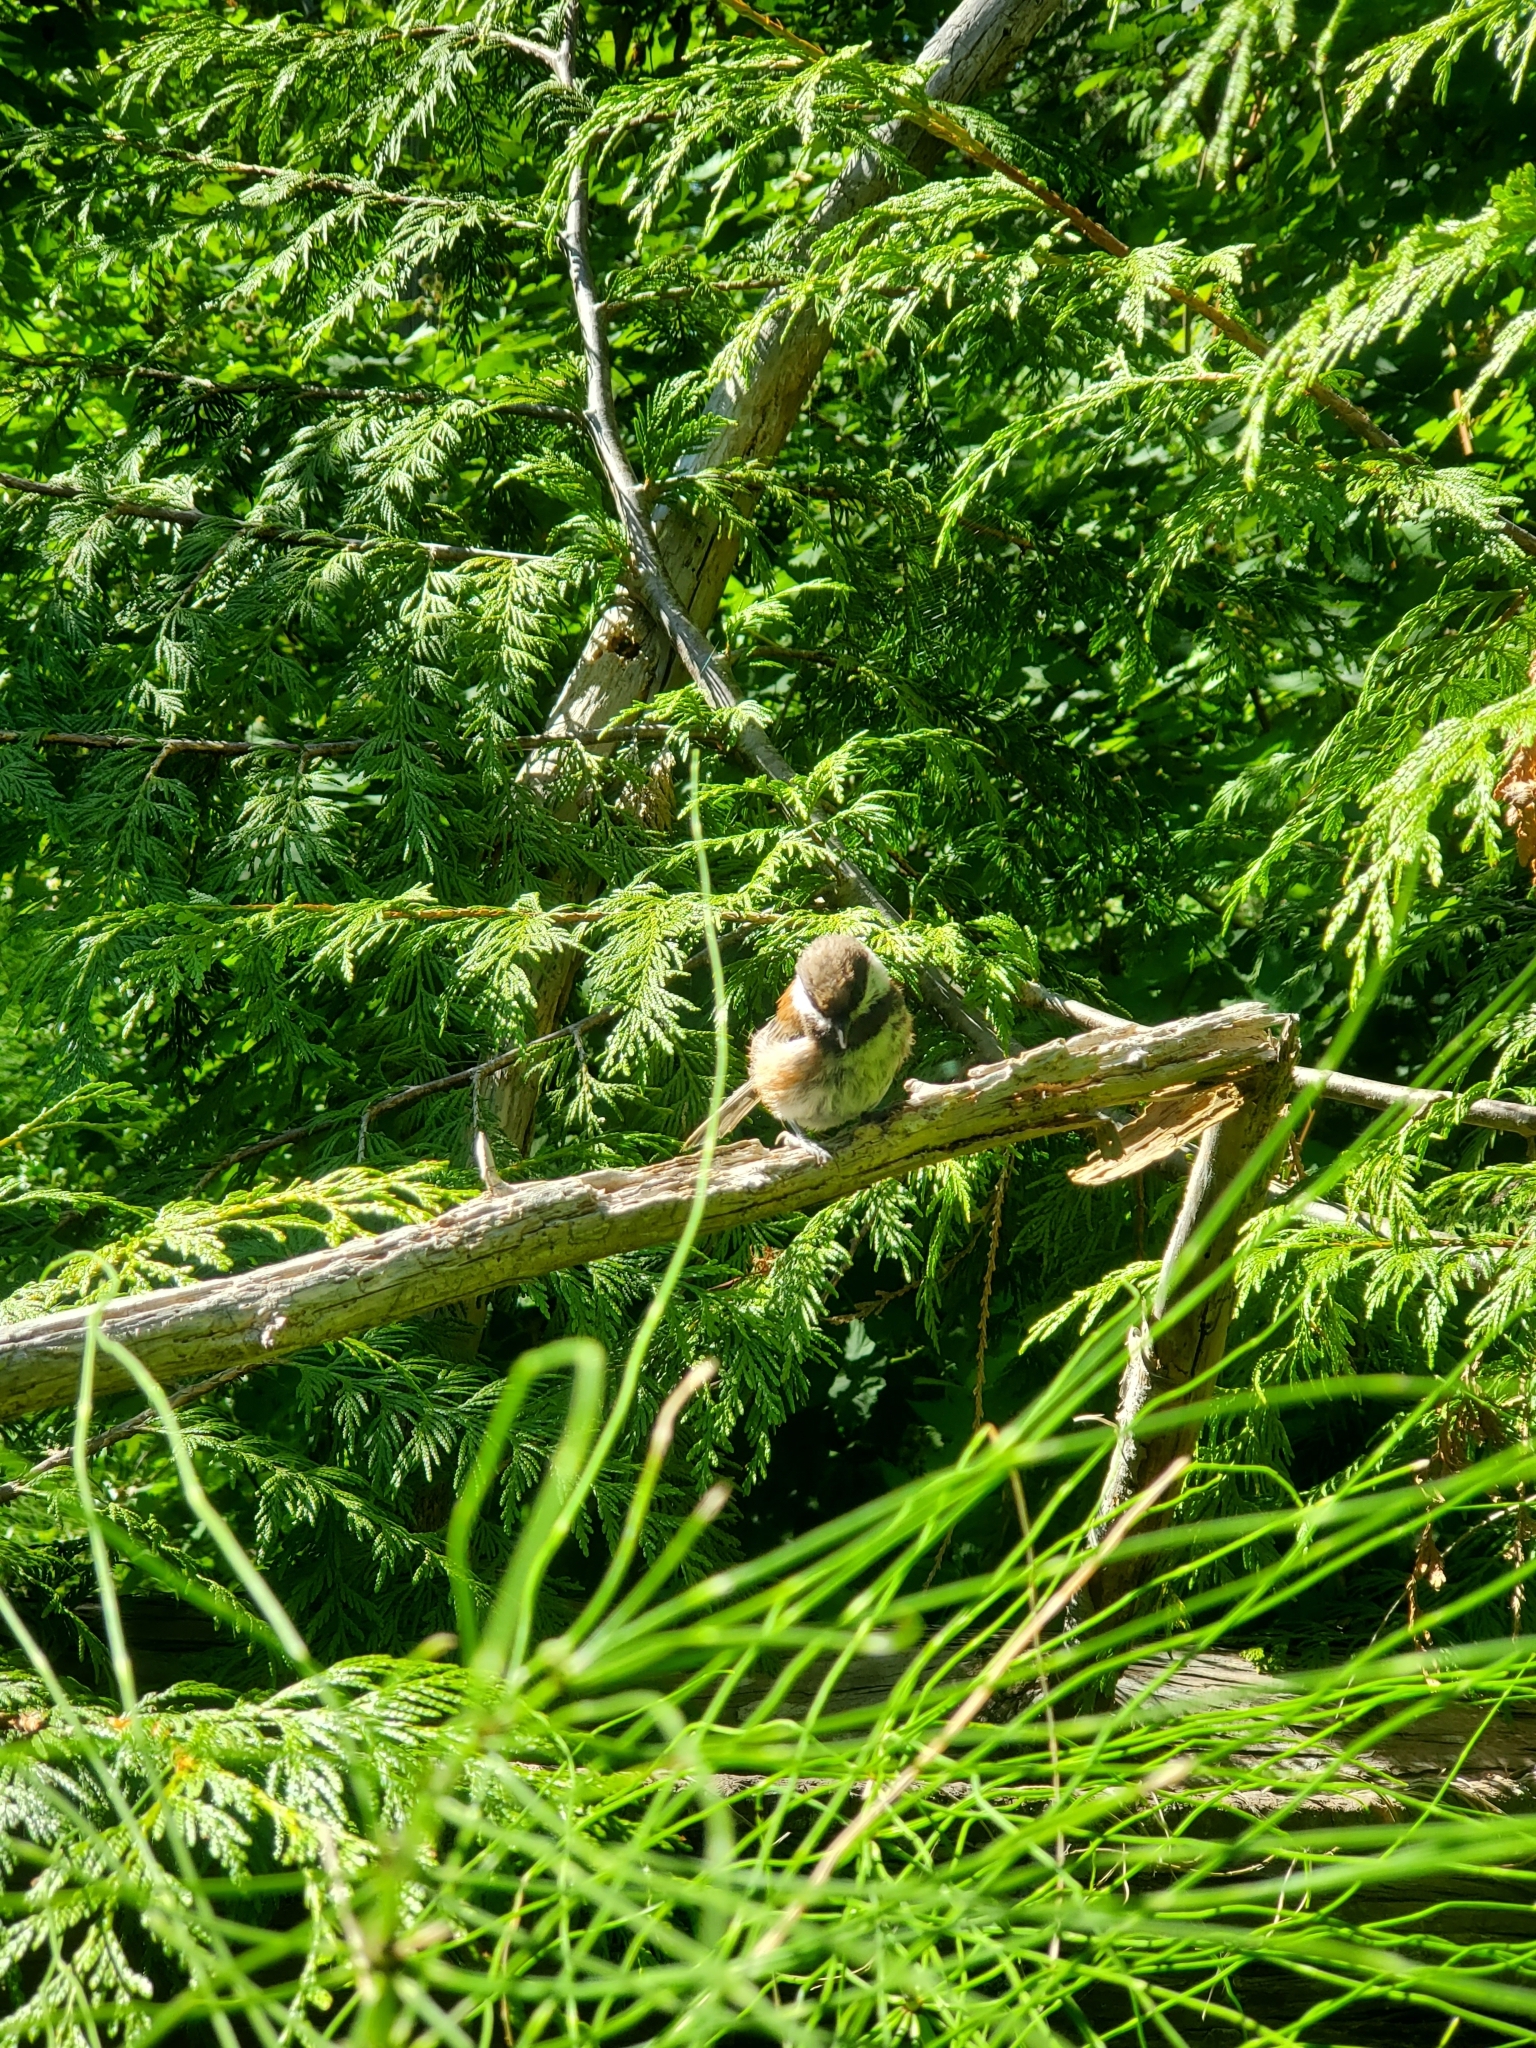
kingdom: Animalia
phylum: Chordata
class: Aves
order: Passeriformes
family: Paridae
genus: Poecile
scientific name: Poecile rufescens
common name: Chestnut-backed chickadee
